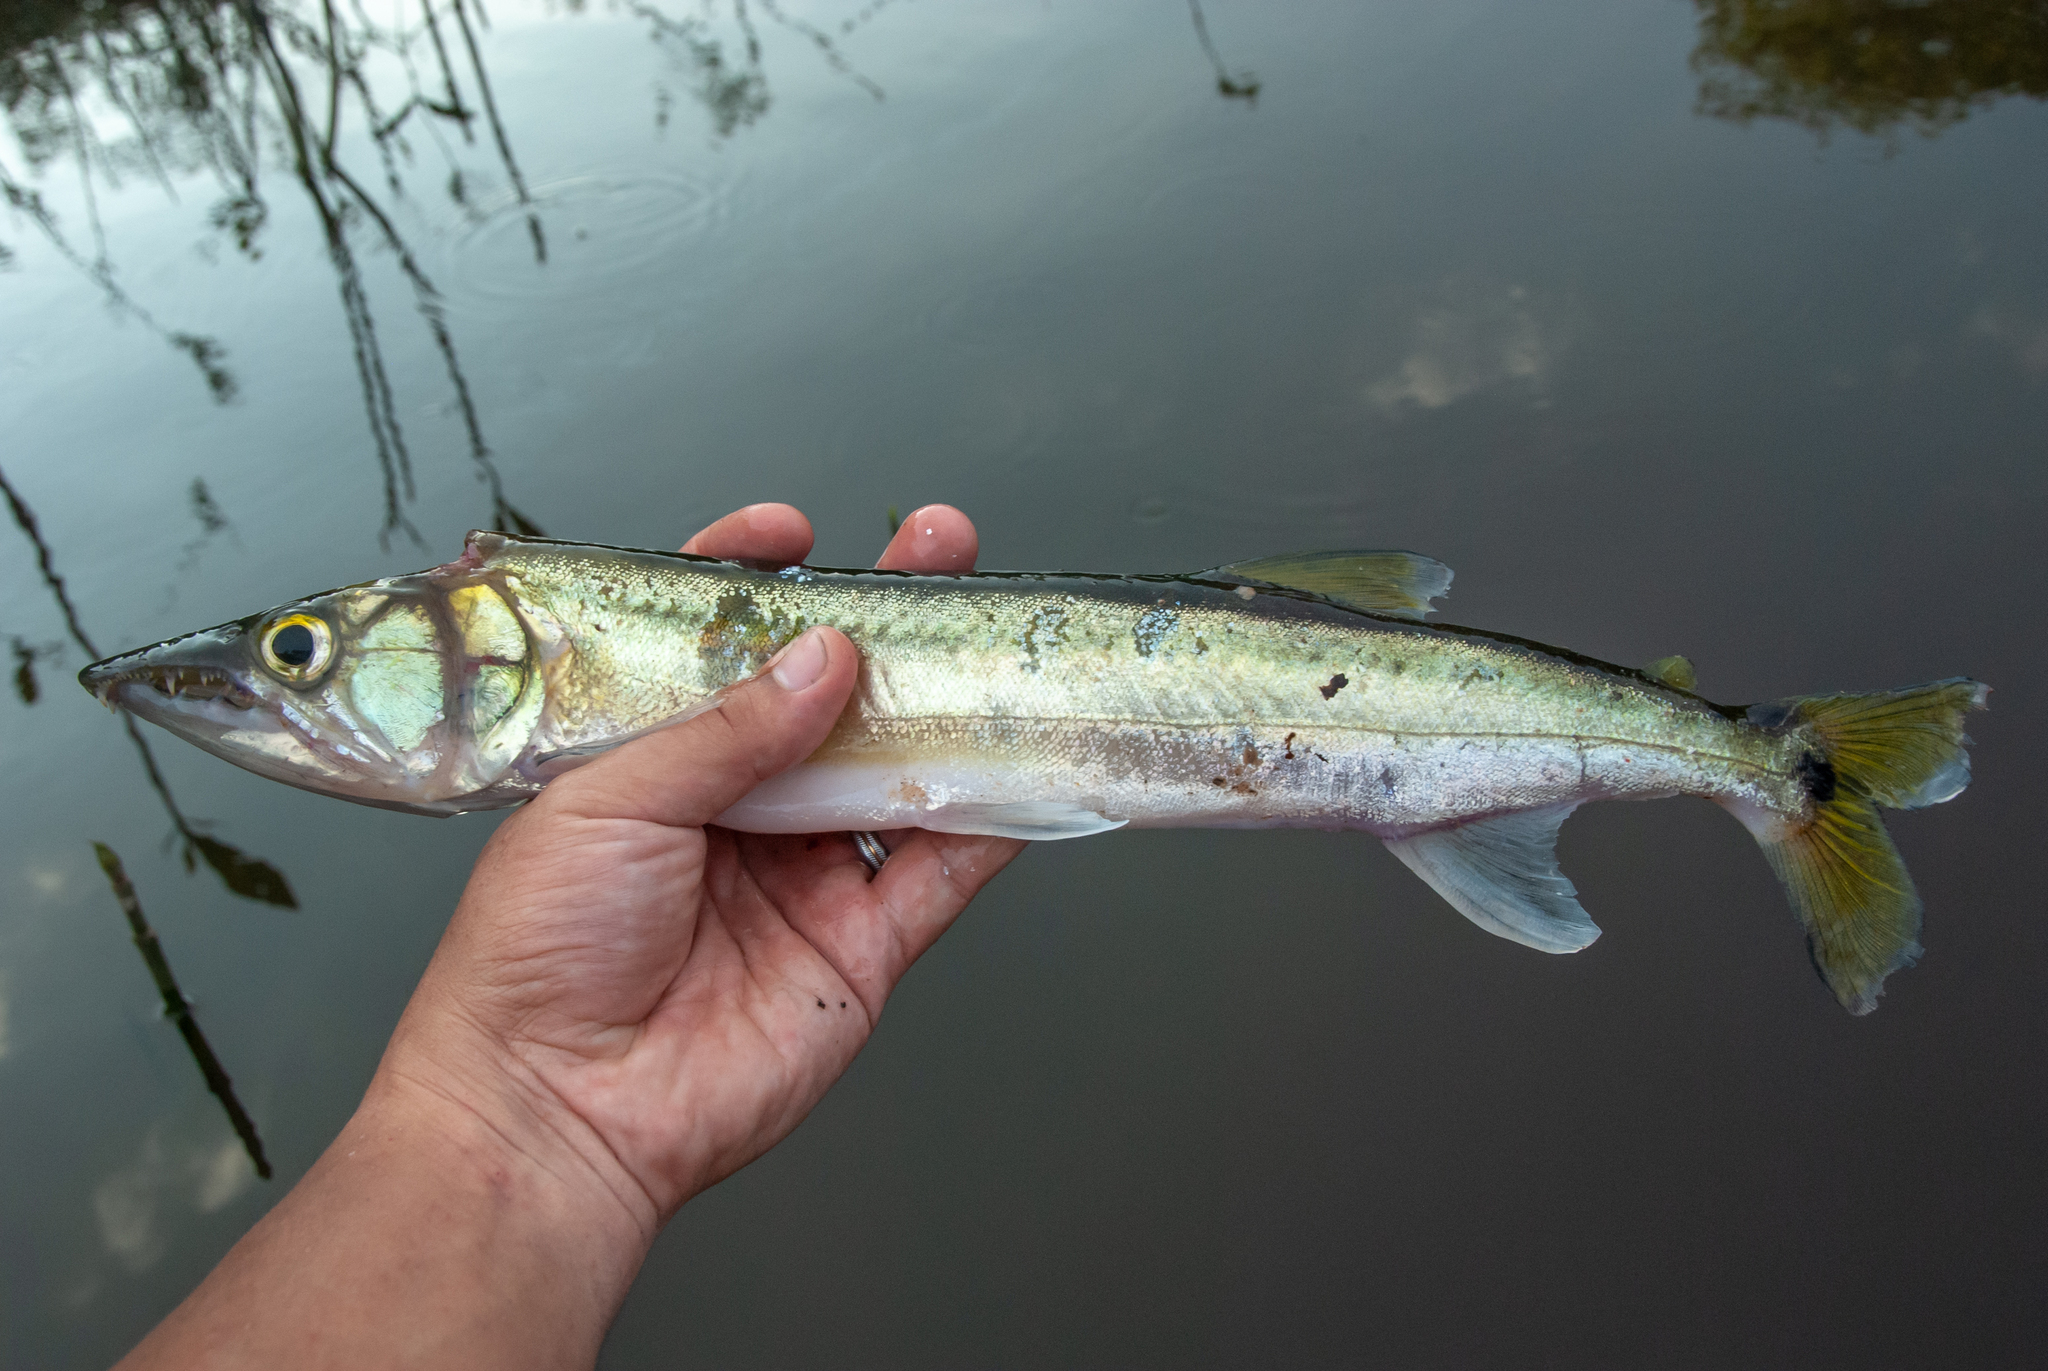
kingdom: Animalia
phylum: Chordata
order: Characiformes
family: Acestrorhynchidae
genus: Acestrorhynchus
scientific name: Acestrorhynchus falcirostris
